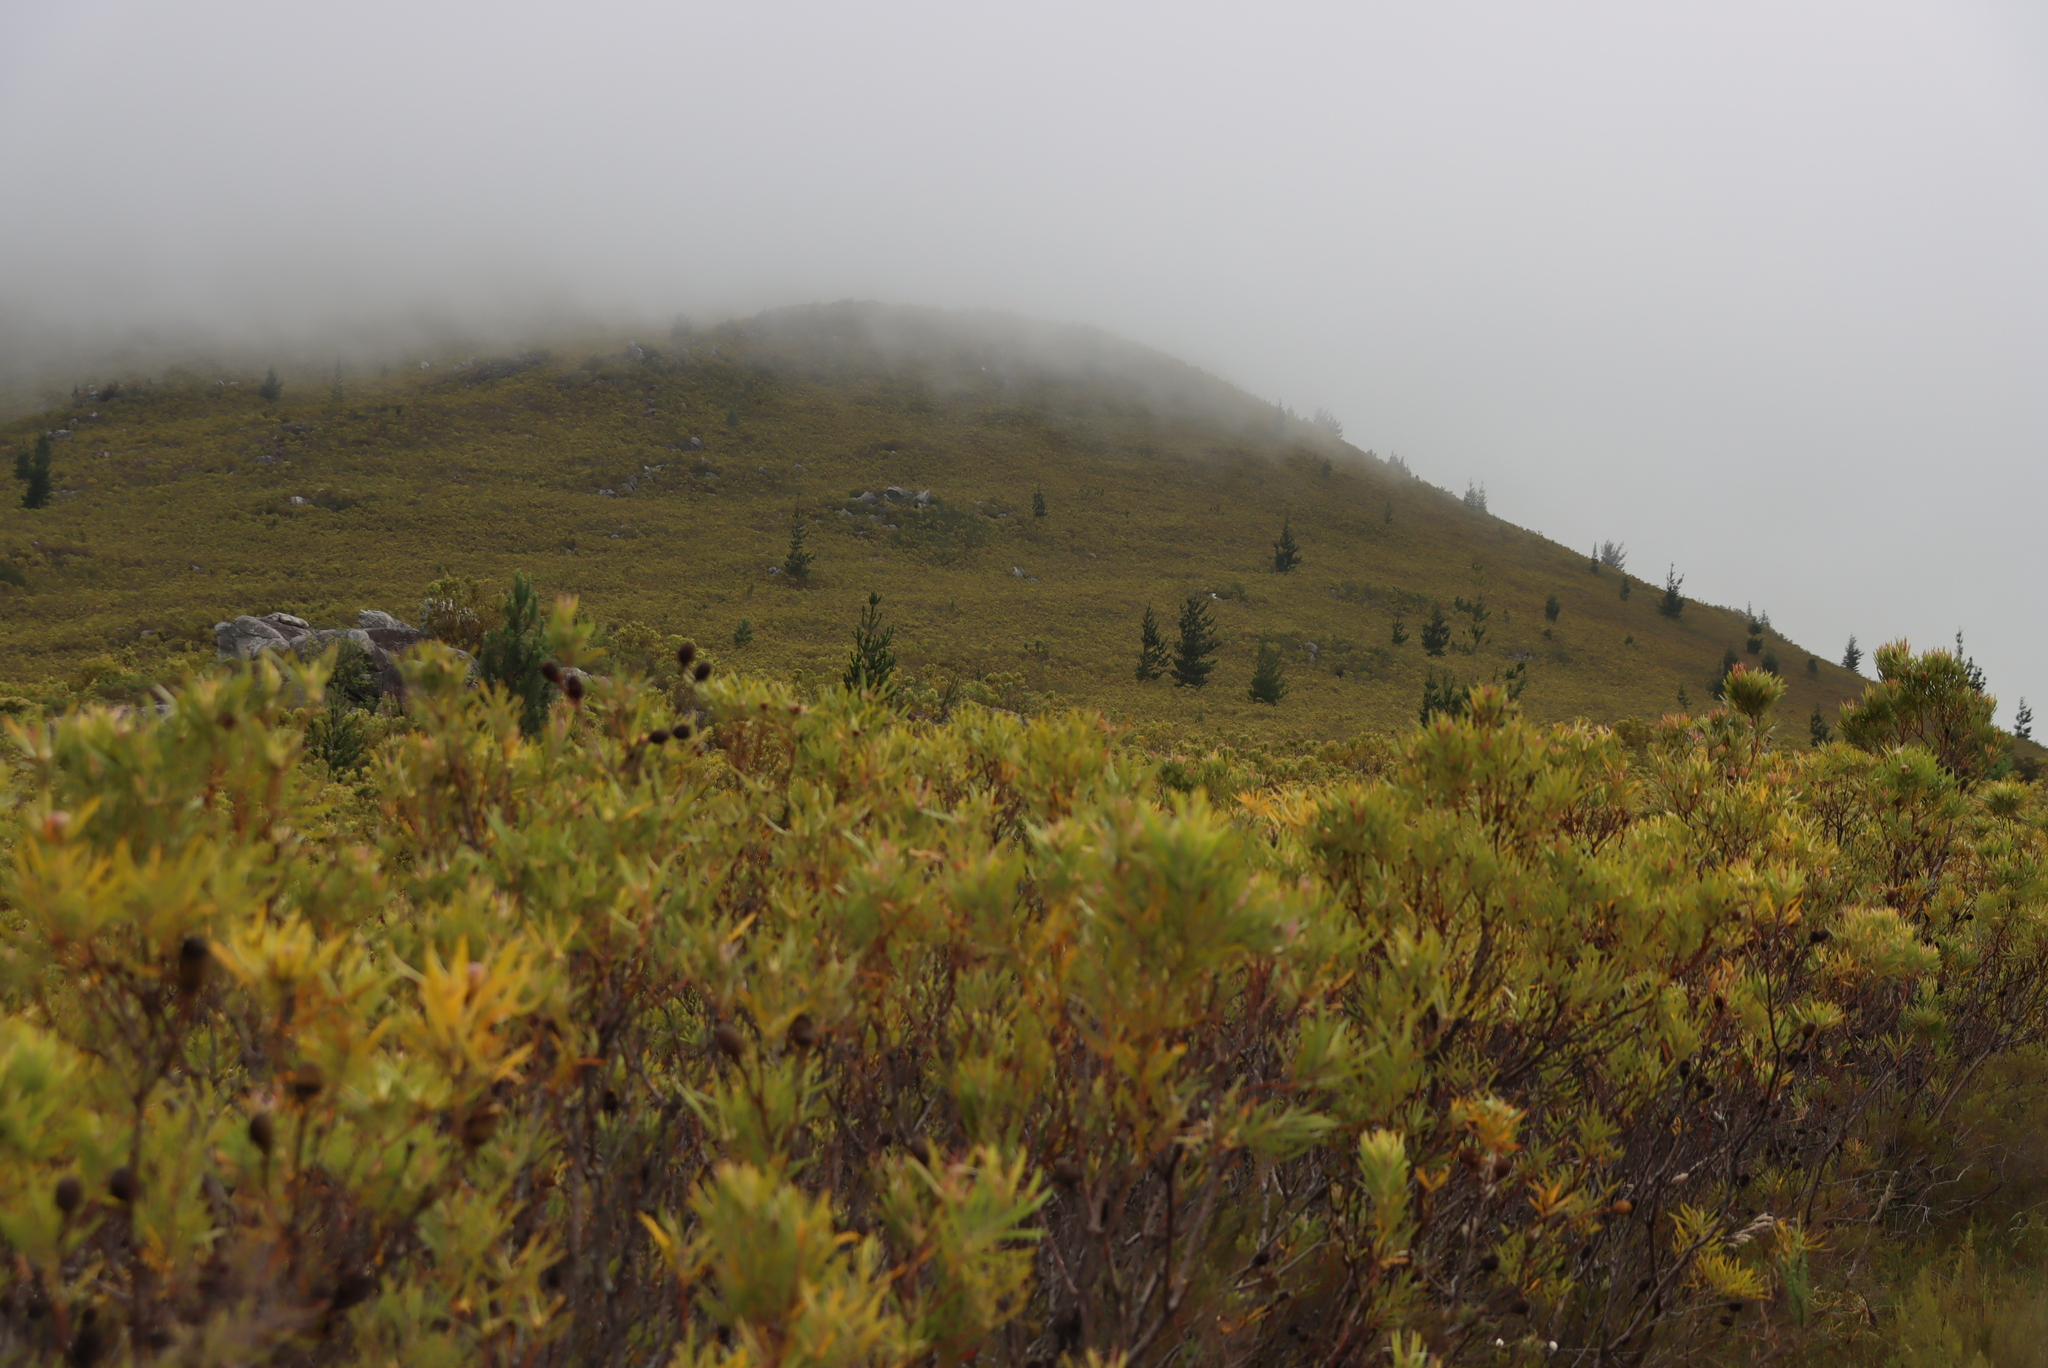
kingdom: Plantae
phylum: Tracheophyta
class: Pinopsida
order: Pinales
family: Pinaceae
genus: Pinus
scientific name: Pinus radiata
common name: Monterey pine
